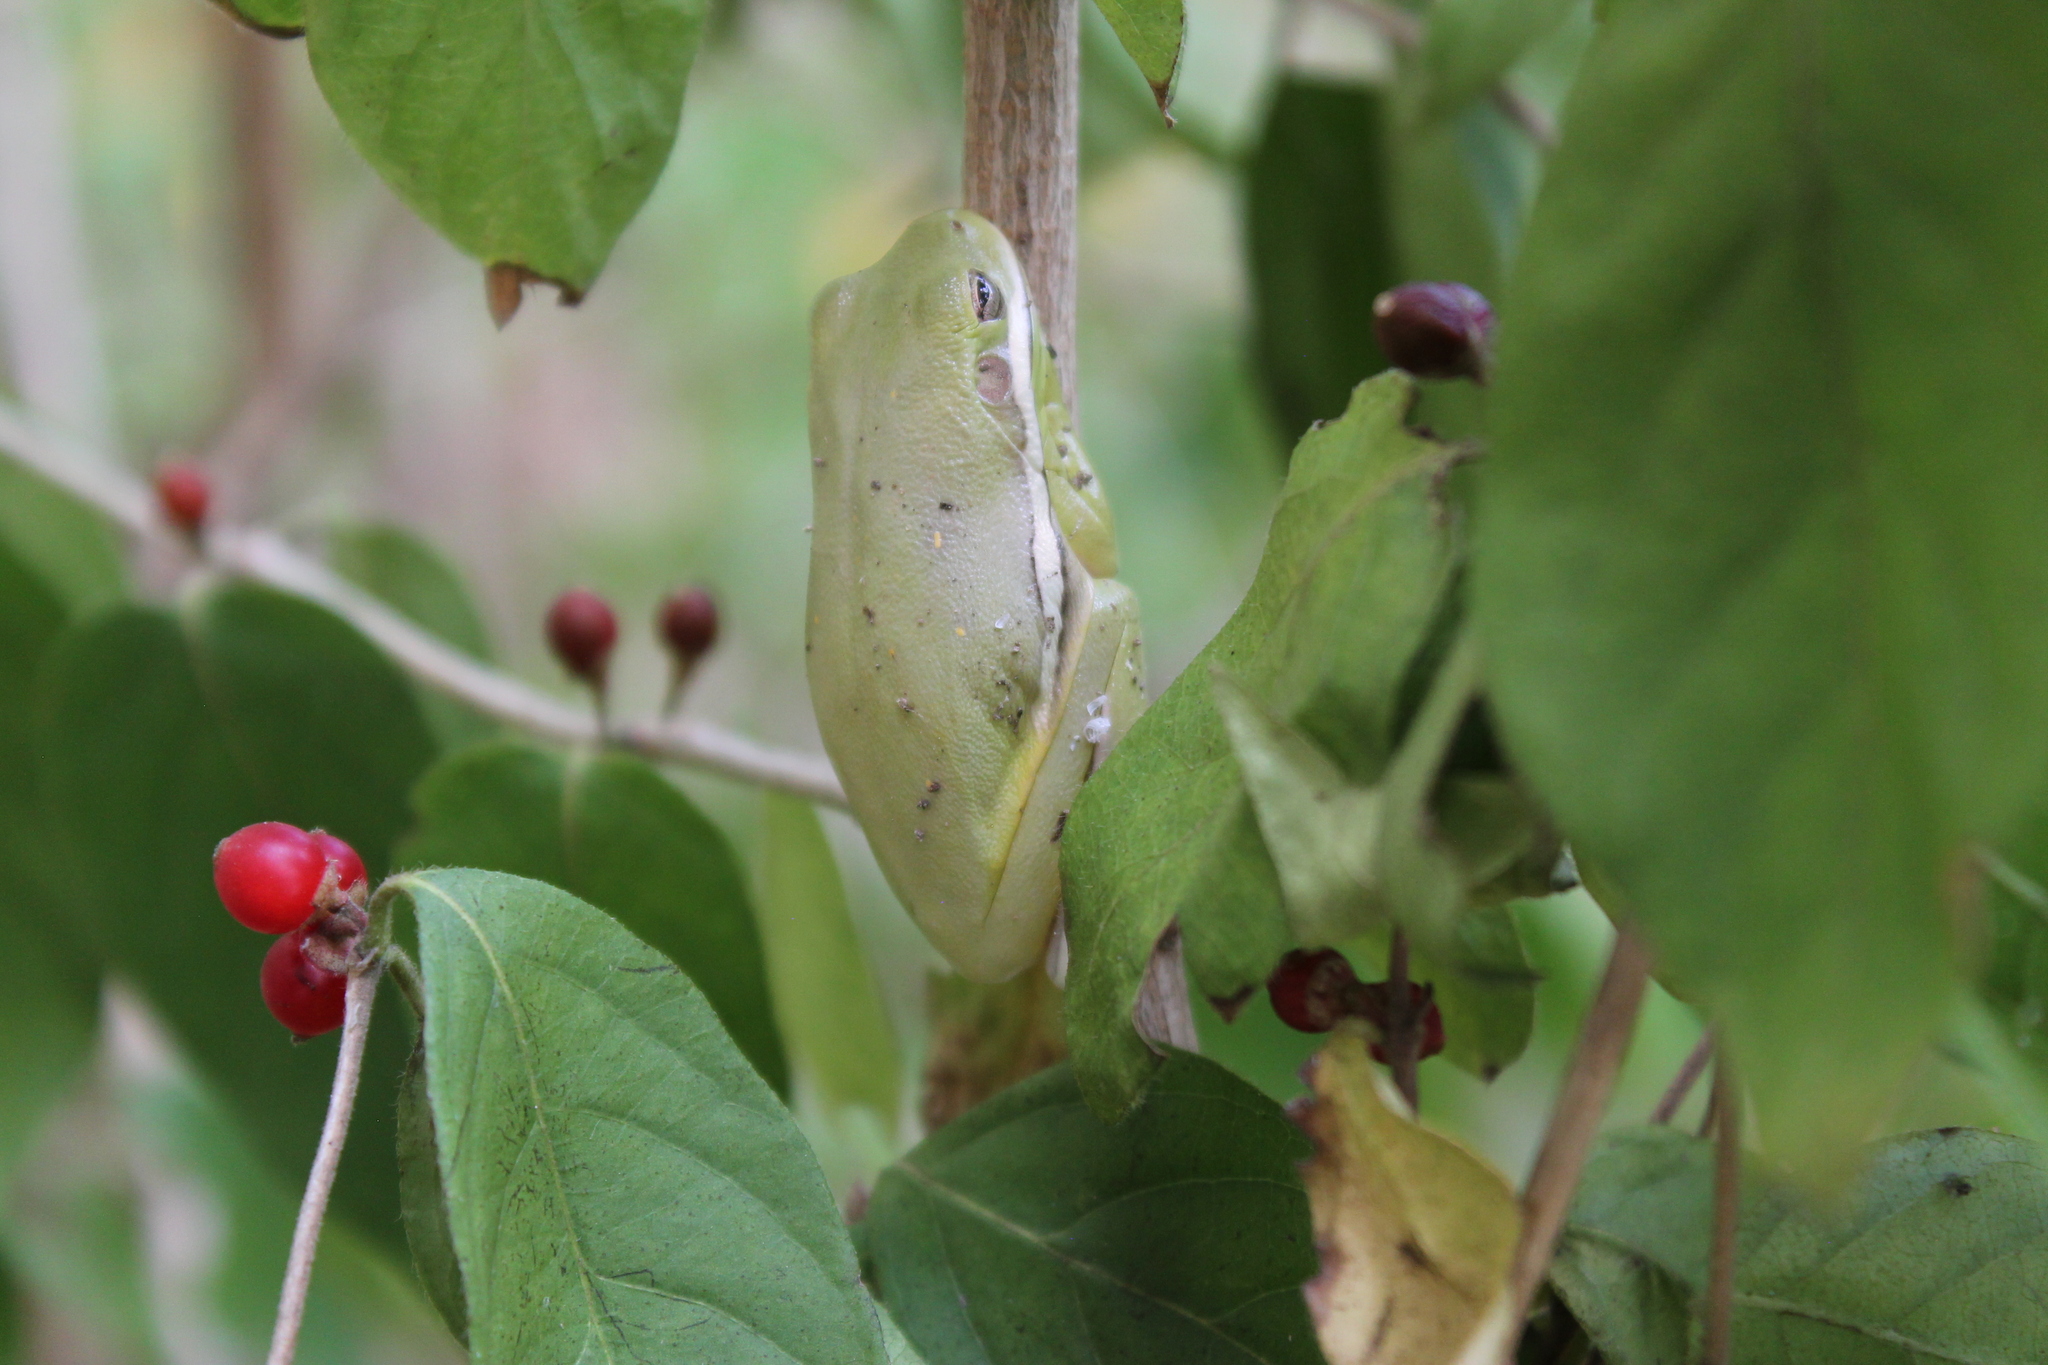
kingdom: Animalia
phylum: Chordata
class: Amphibia
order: Anura
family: Hylidae
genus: Dryophytes
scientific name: Dryophytes cinereus
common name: Green treefrog
